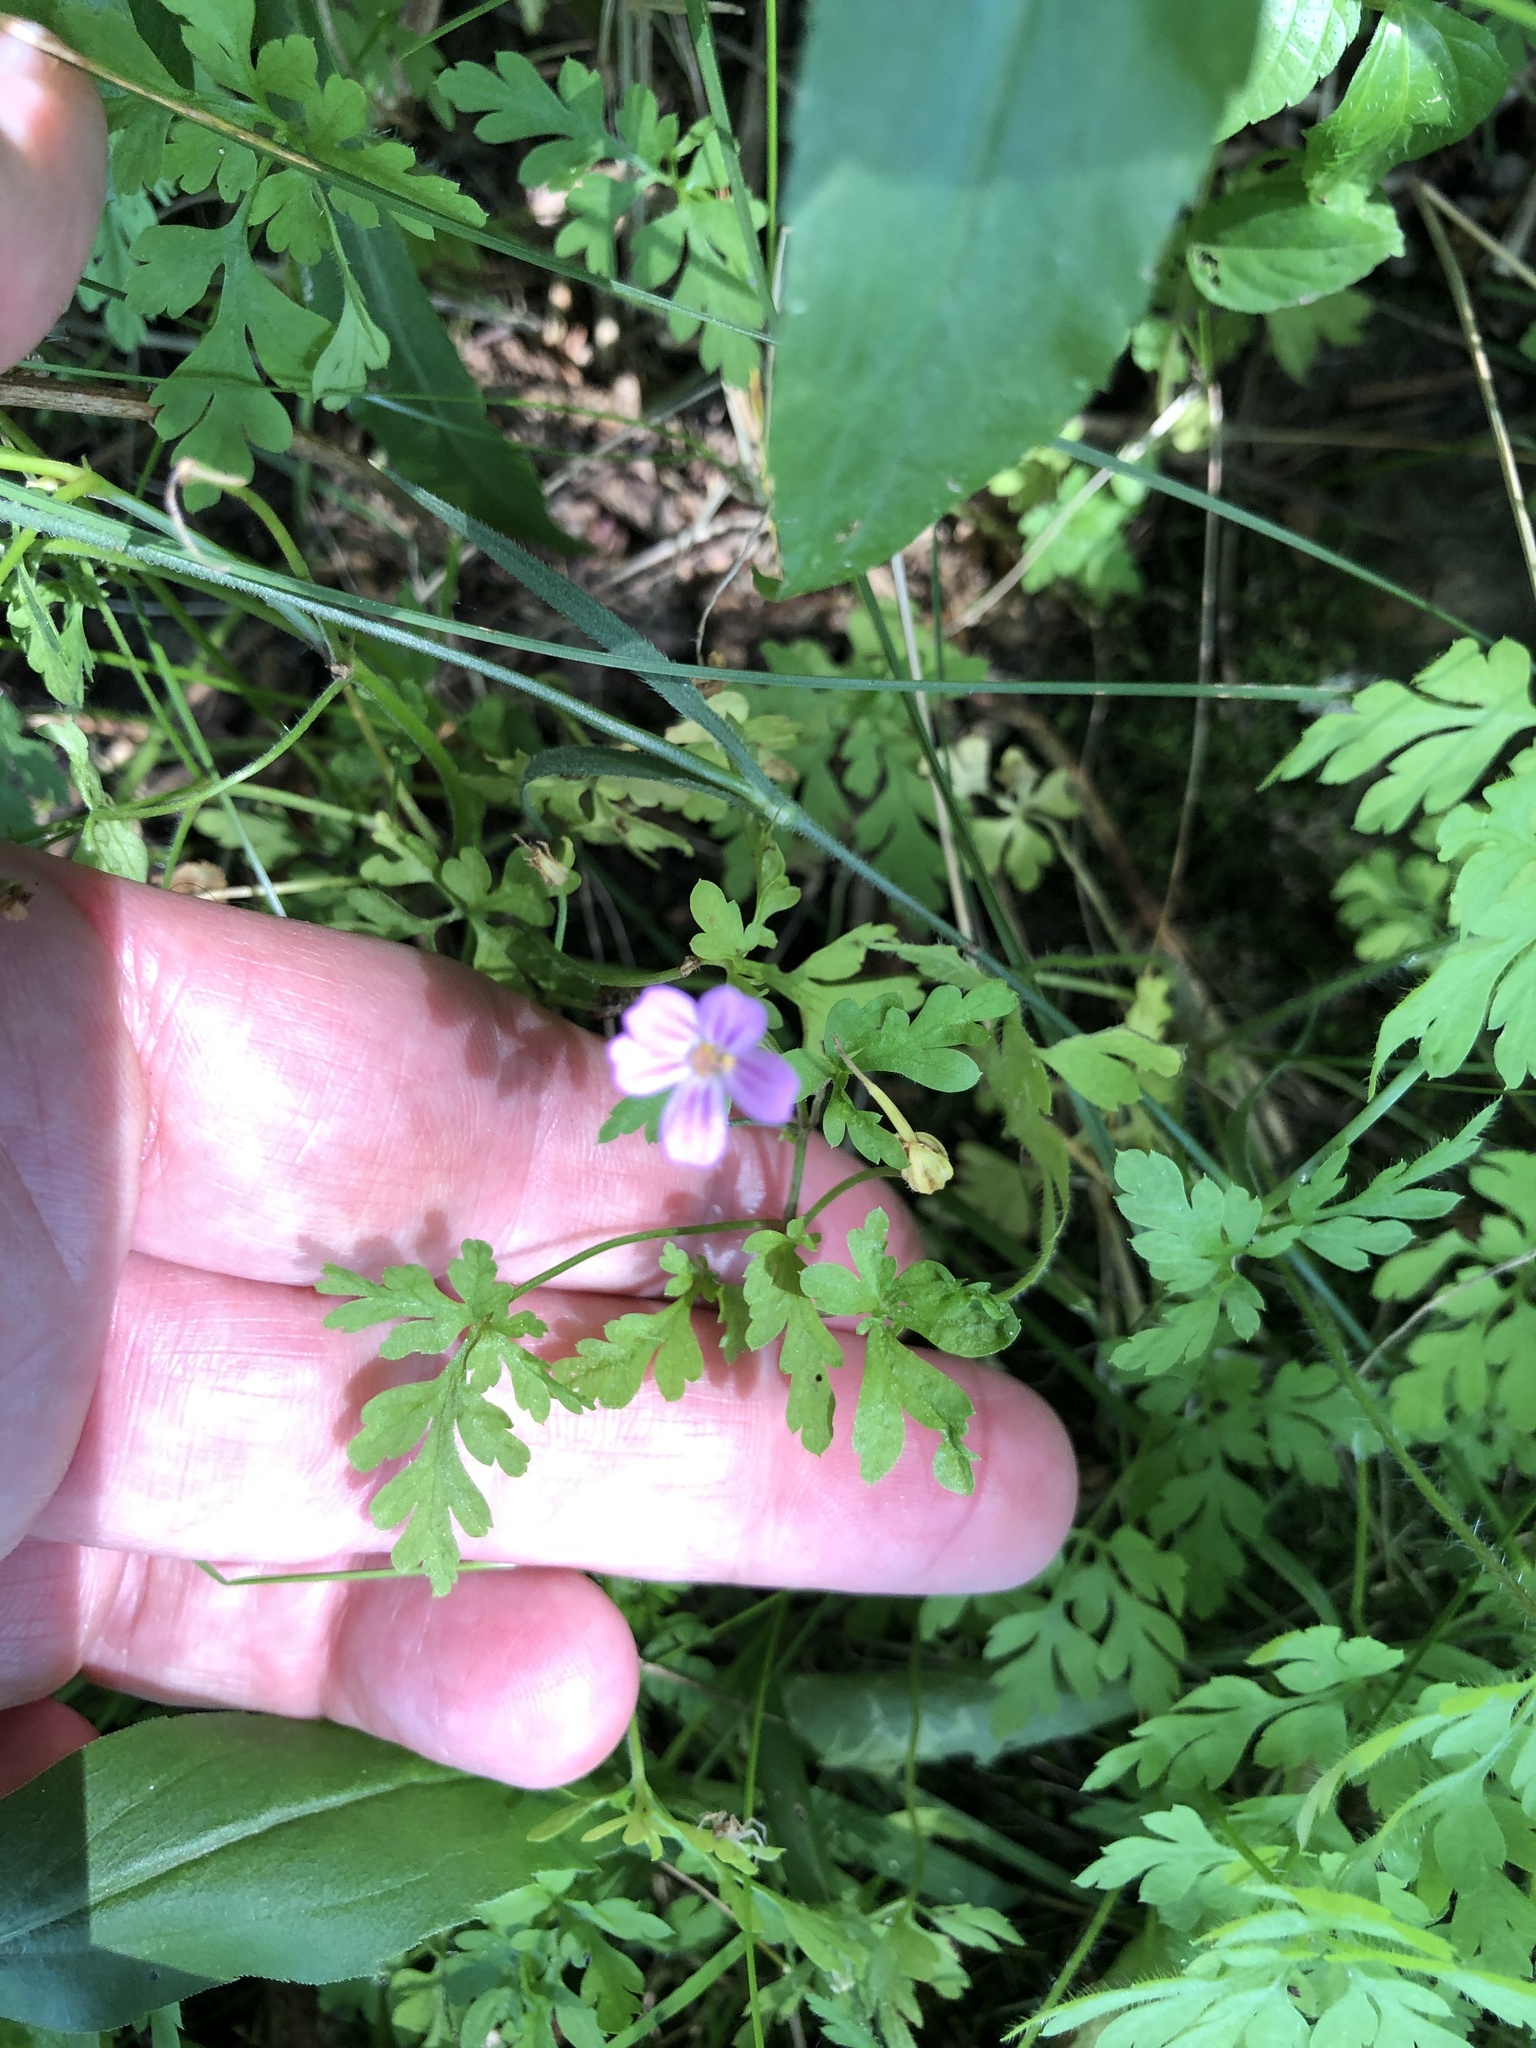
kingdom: Plantae
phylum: Tracheophyta
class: Magnoliopsida
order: Geraniales
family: Geraniaceae
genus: Geranium
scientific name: Geranium robertianum
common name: Herb-robert
